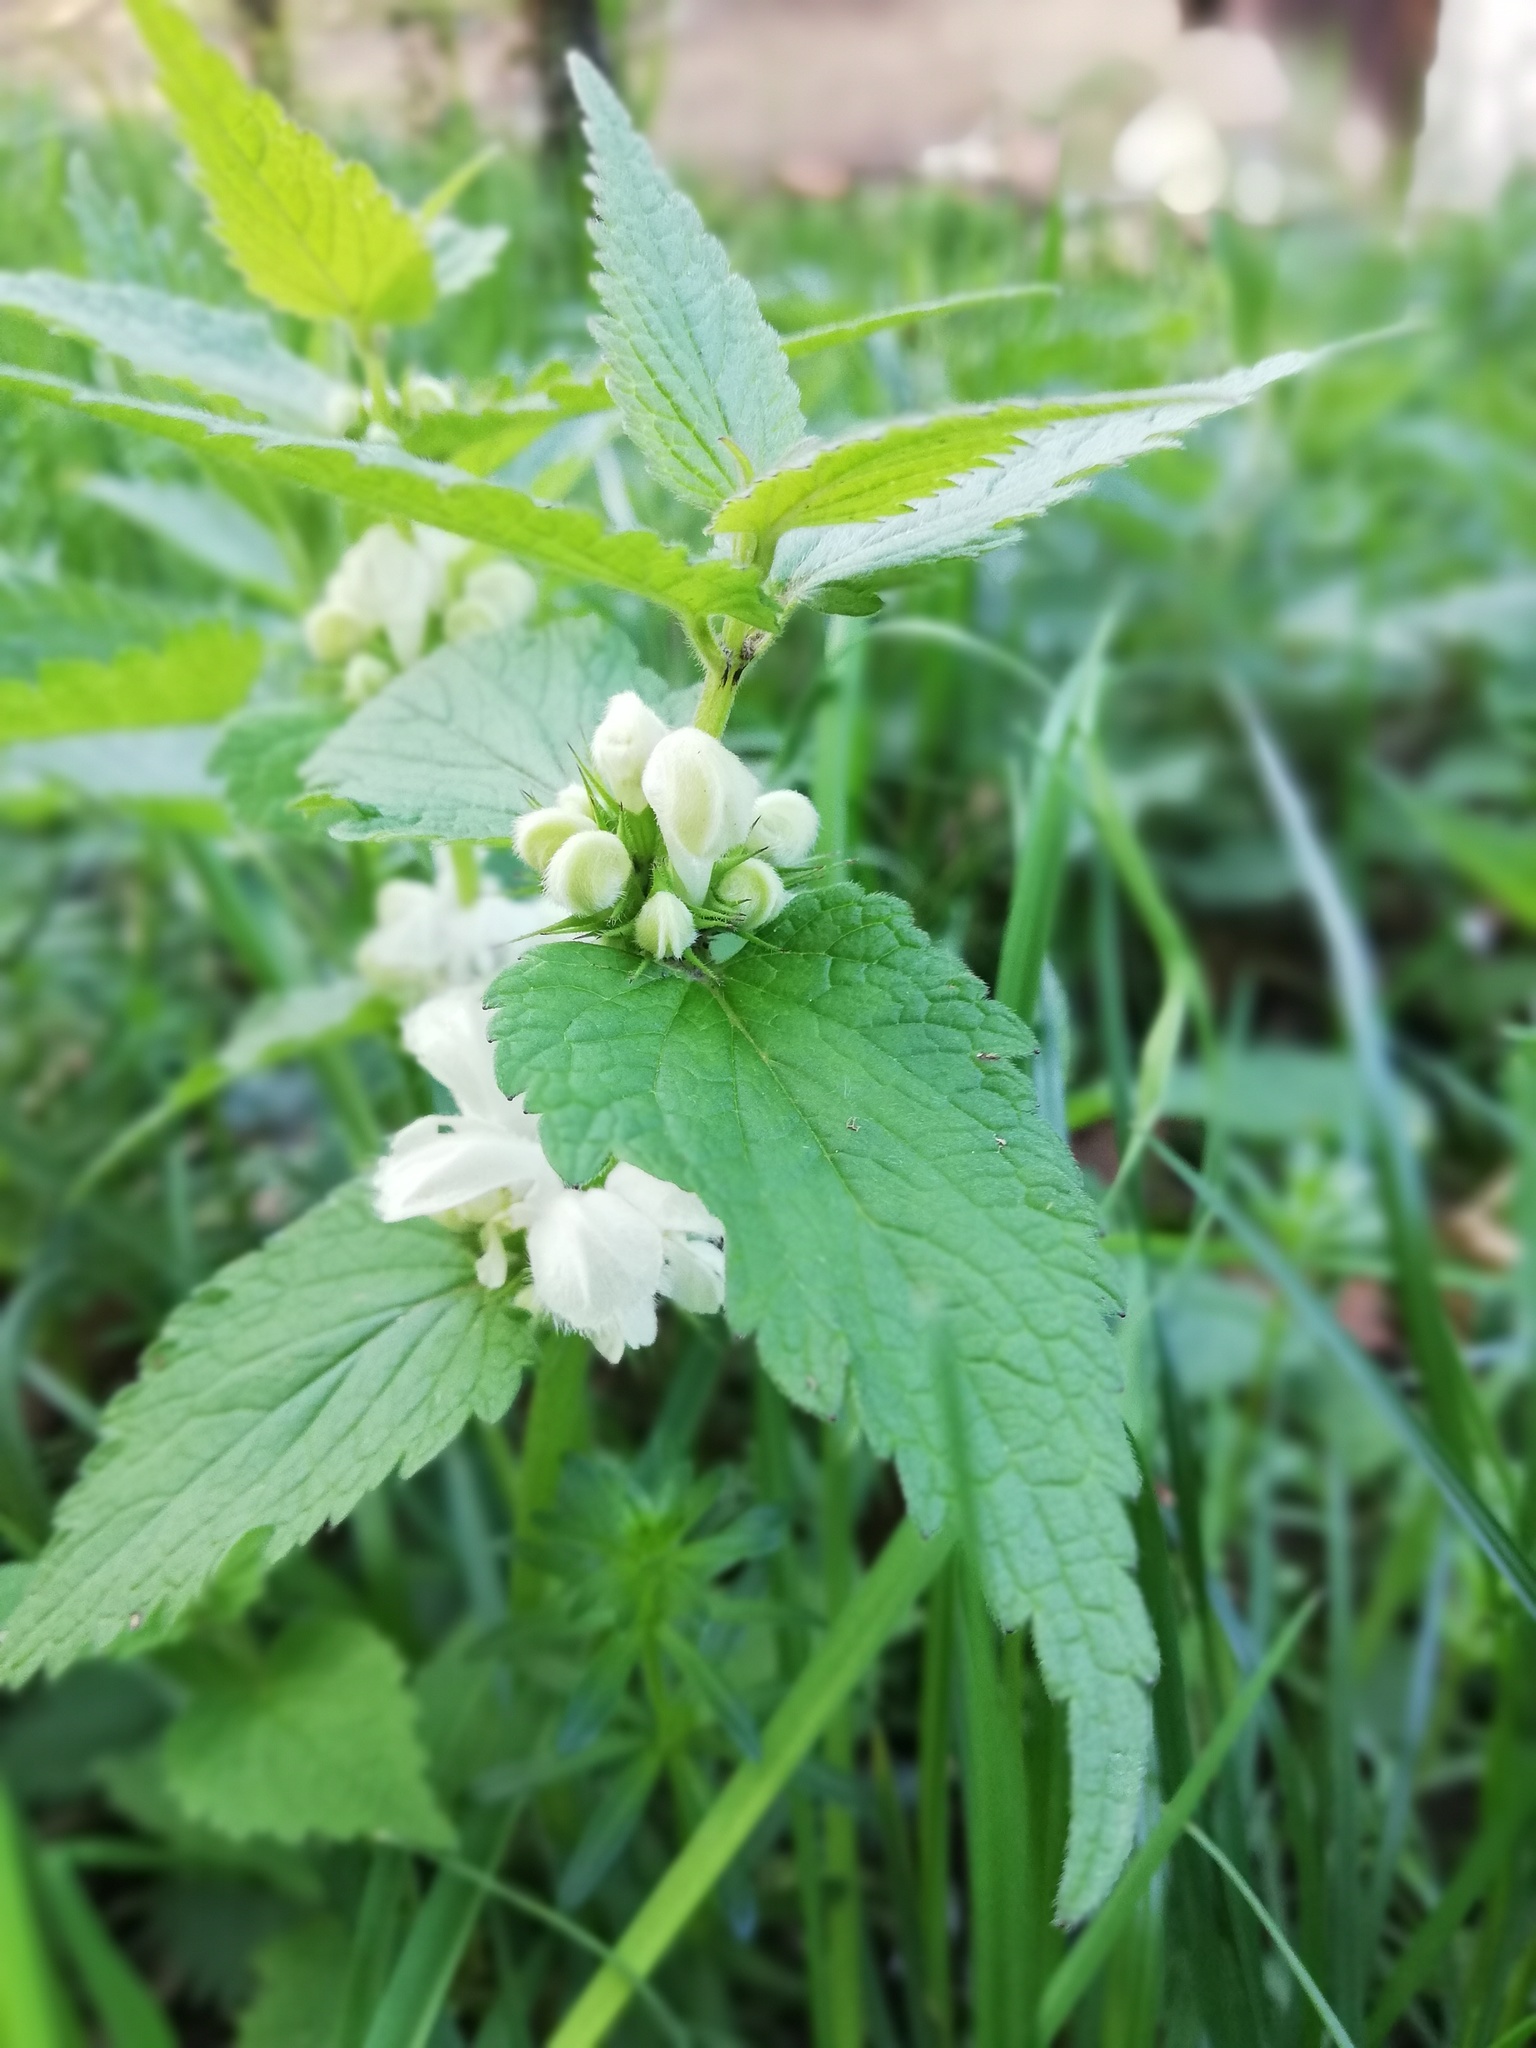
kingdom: Plantae
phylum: Tracheophyta
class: Magnoliopsida
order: Lamiales
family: Lamiaceae
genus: Lamium
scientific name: Lamium album
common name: White dead-nettle
